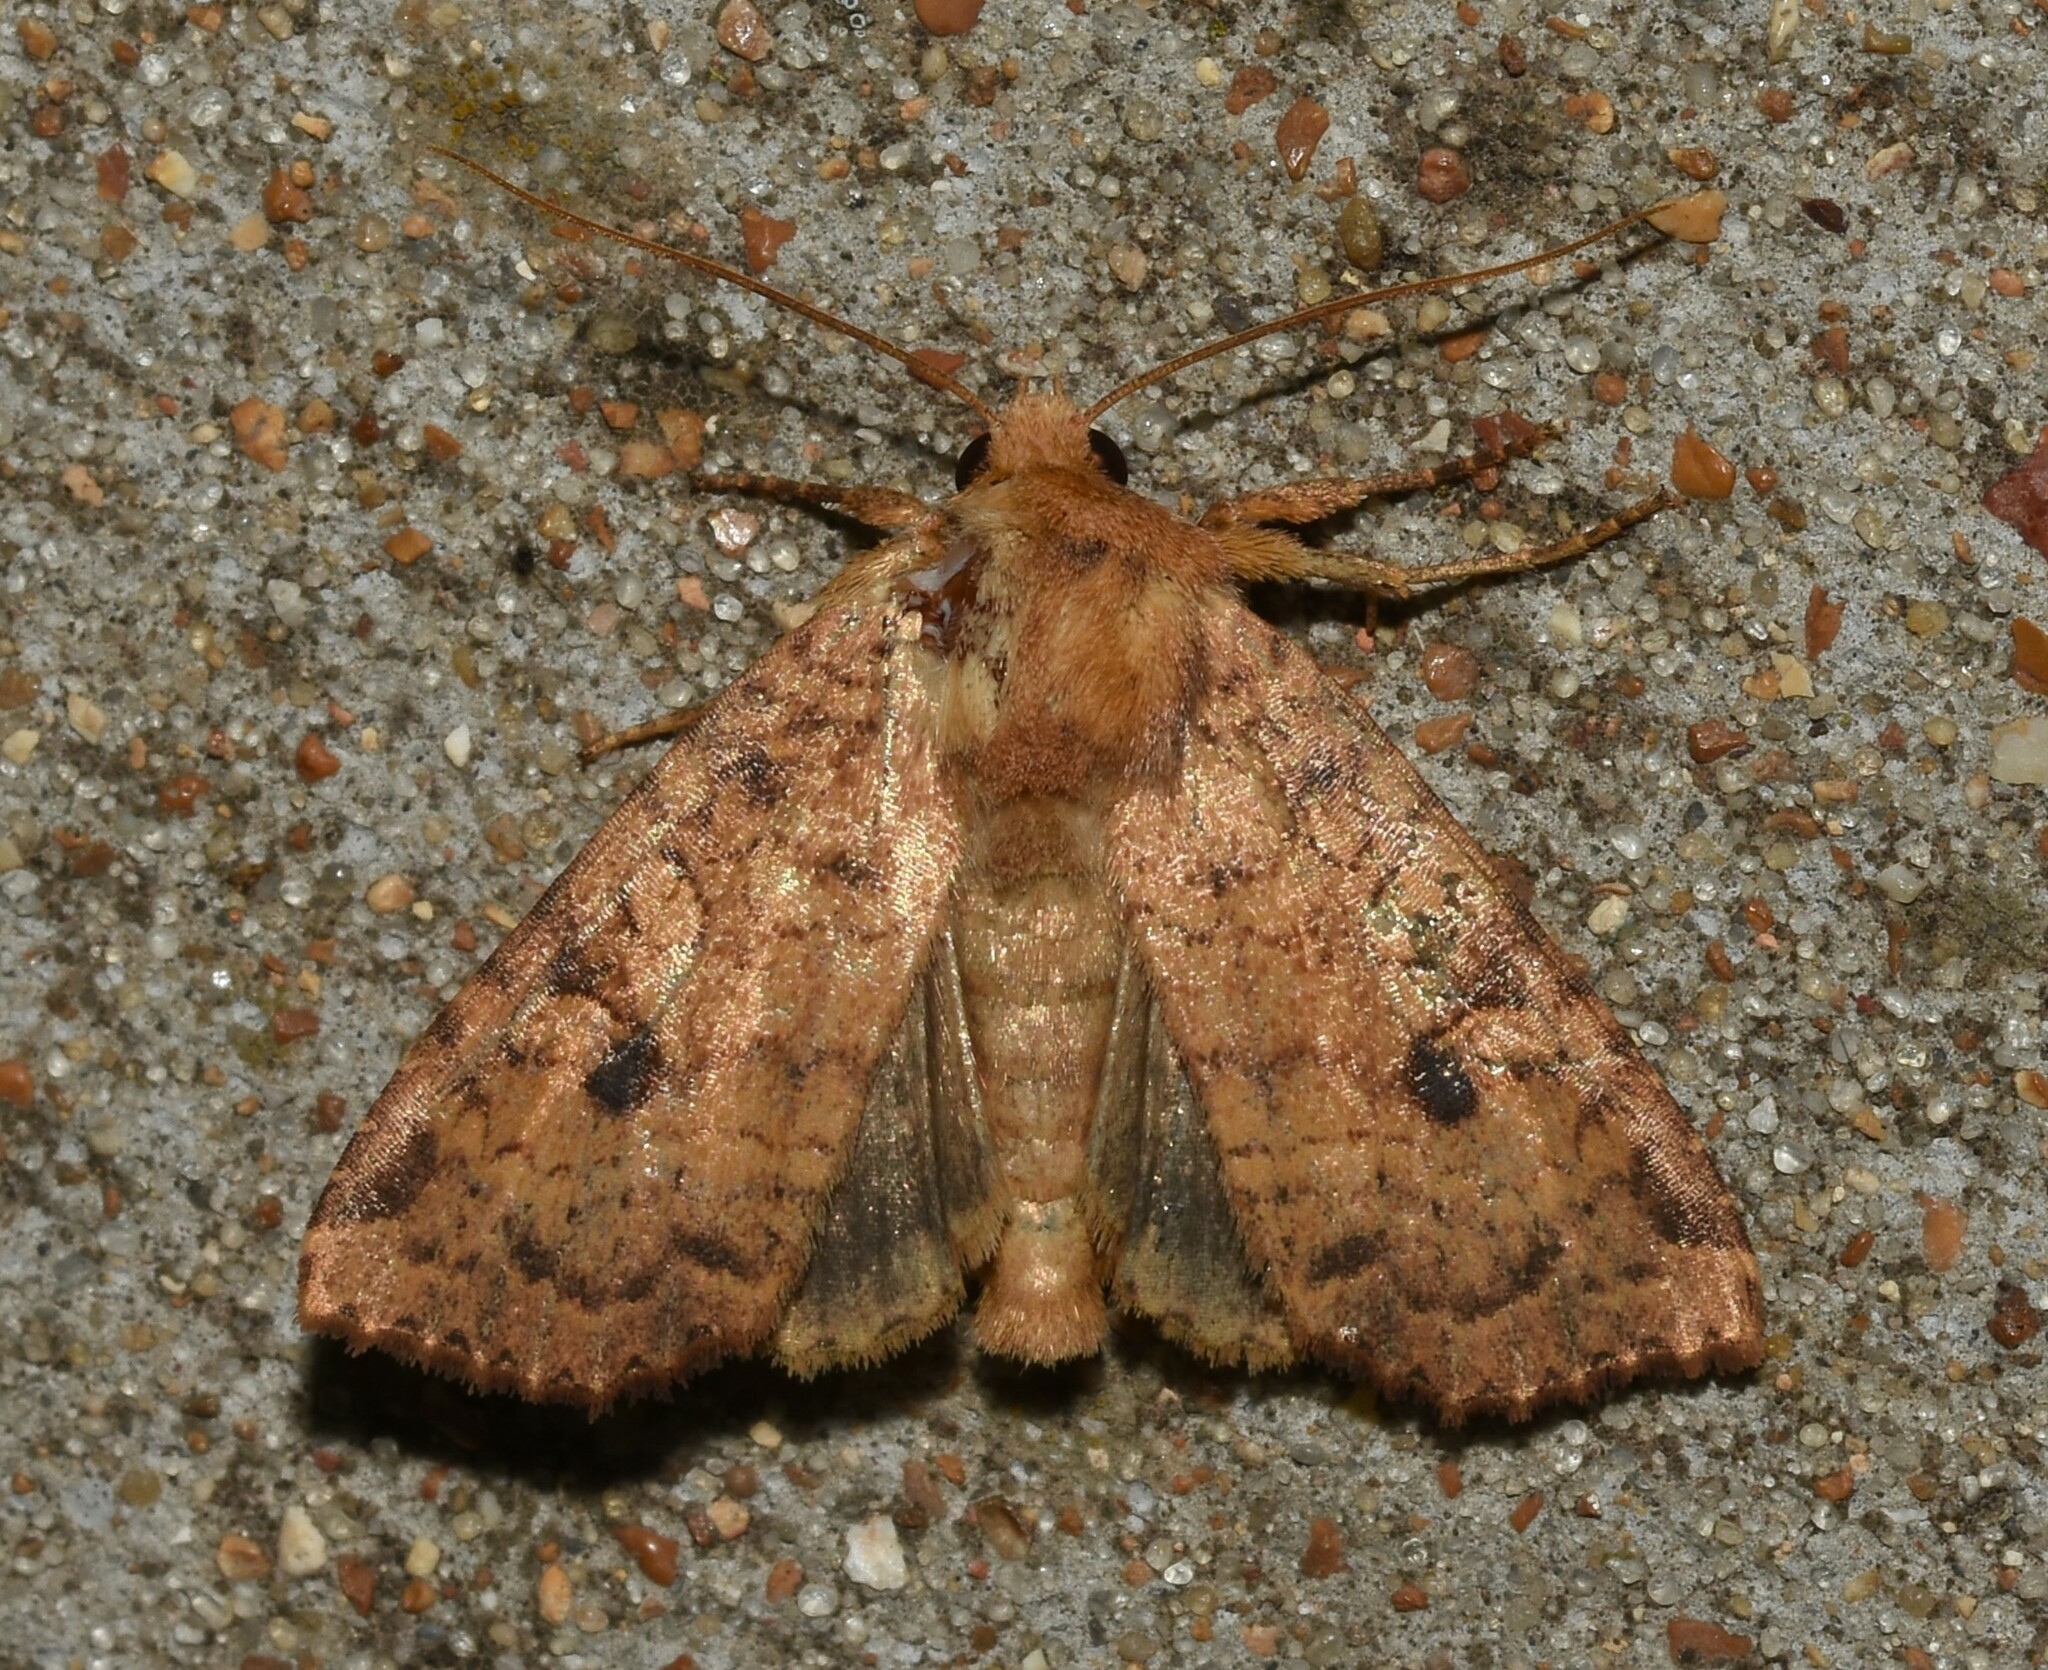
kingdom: Animalia
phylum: Arthropoda
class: Insecta
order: Lepidoptera
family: Noctuidae
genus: Apamea
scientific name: Apamea helva
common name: Yellow three-spot
